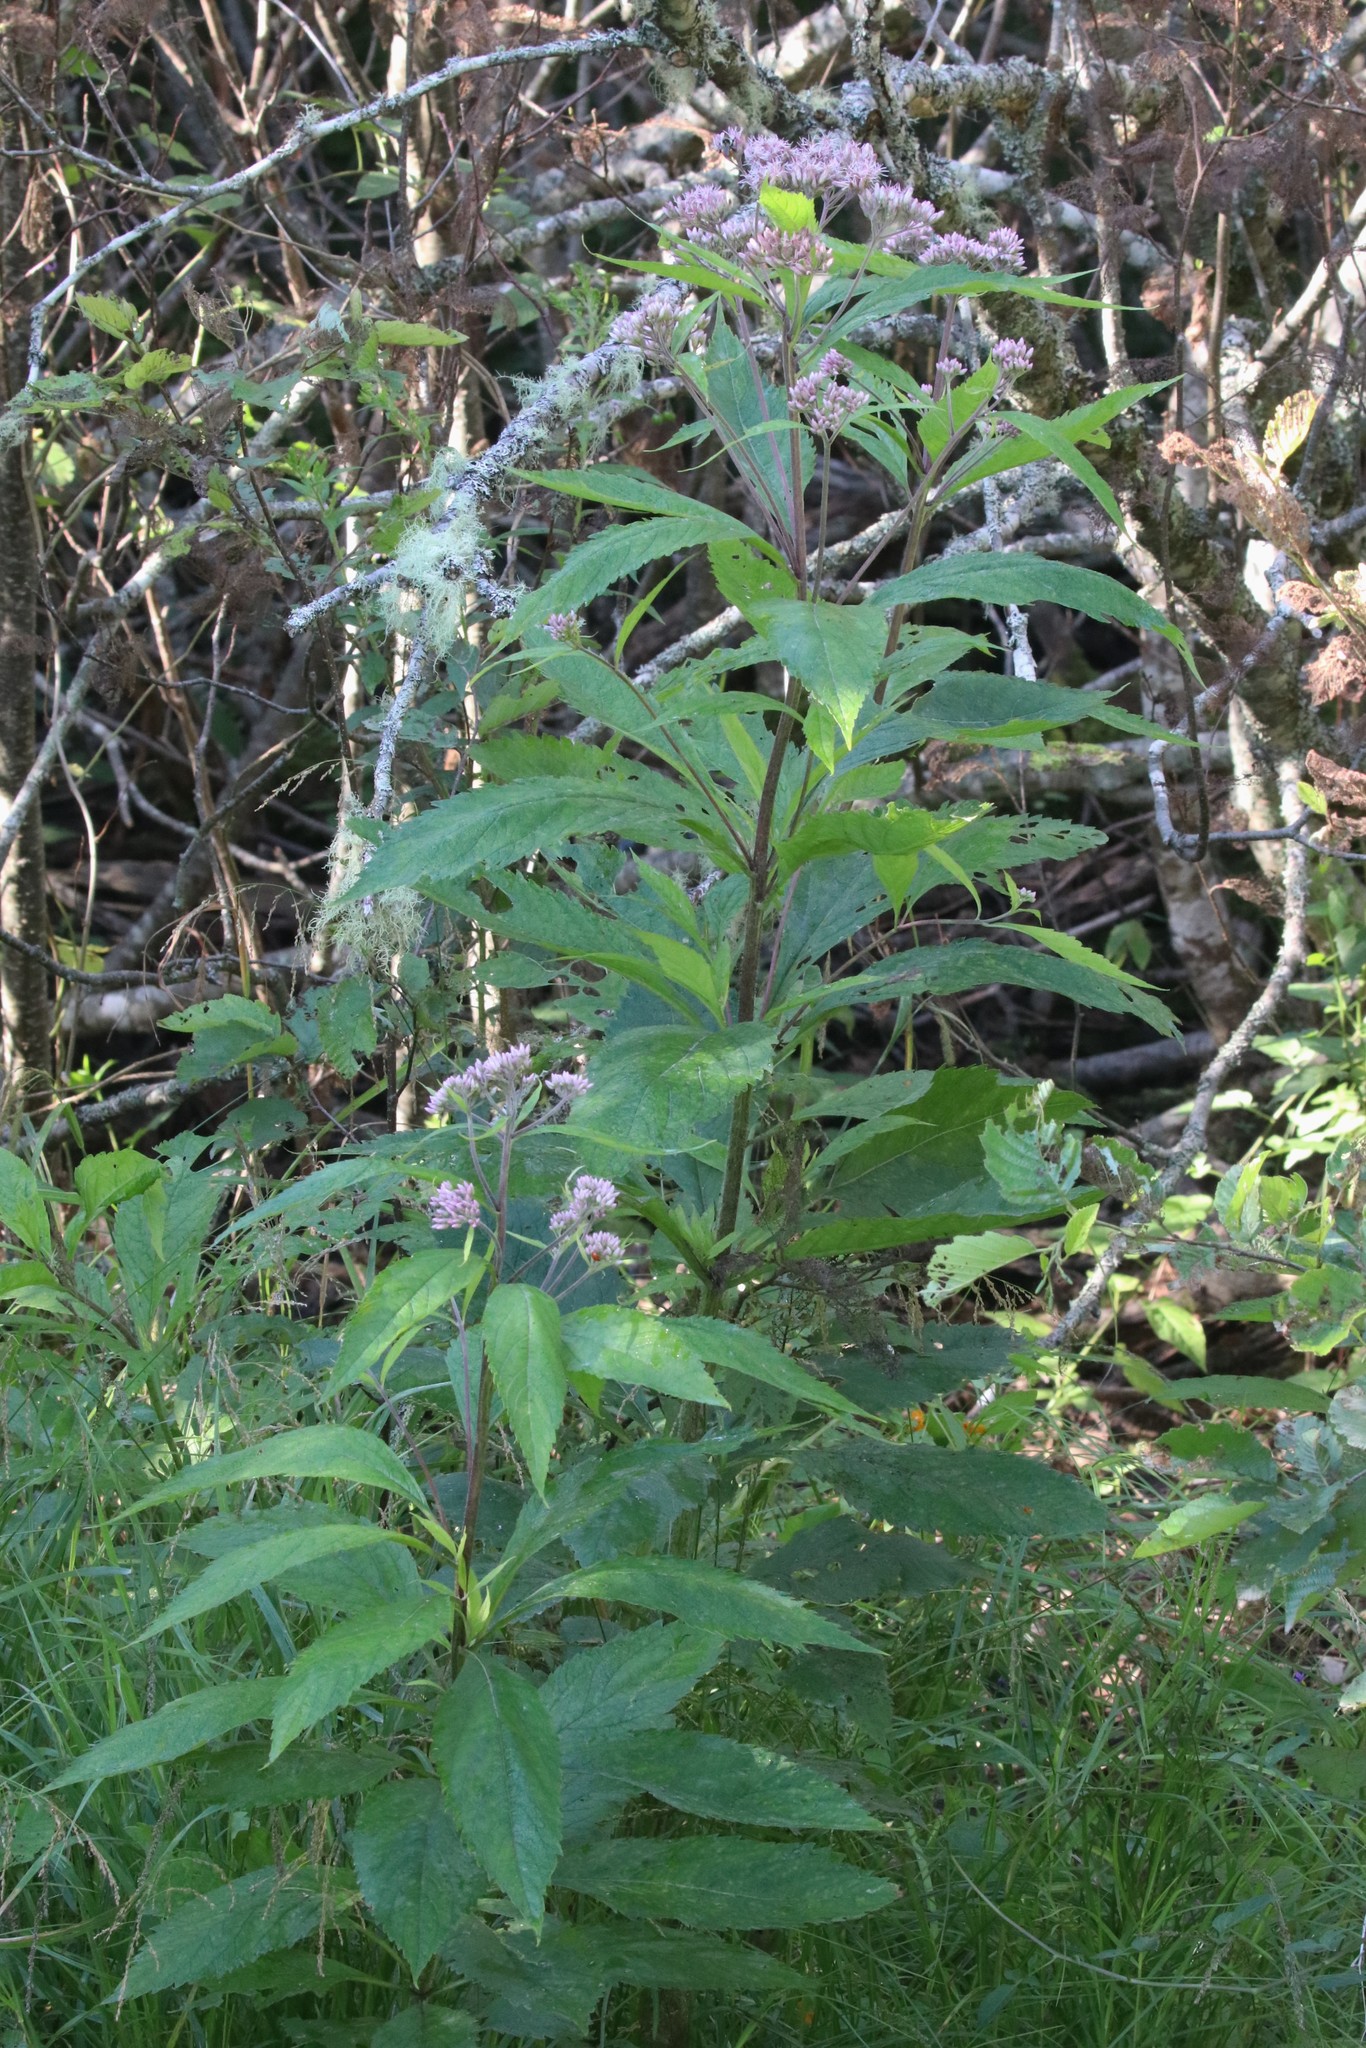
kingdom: Plantae
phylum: Tracheophyta
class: Magnoliopsida
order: Asterales
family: Asteraceae
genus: Eutrochium
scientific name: Eutrochium maculatum
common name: Spotted joe pye weed
